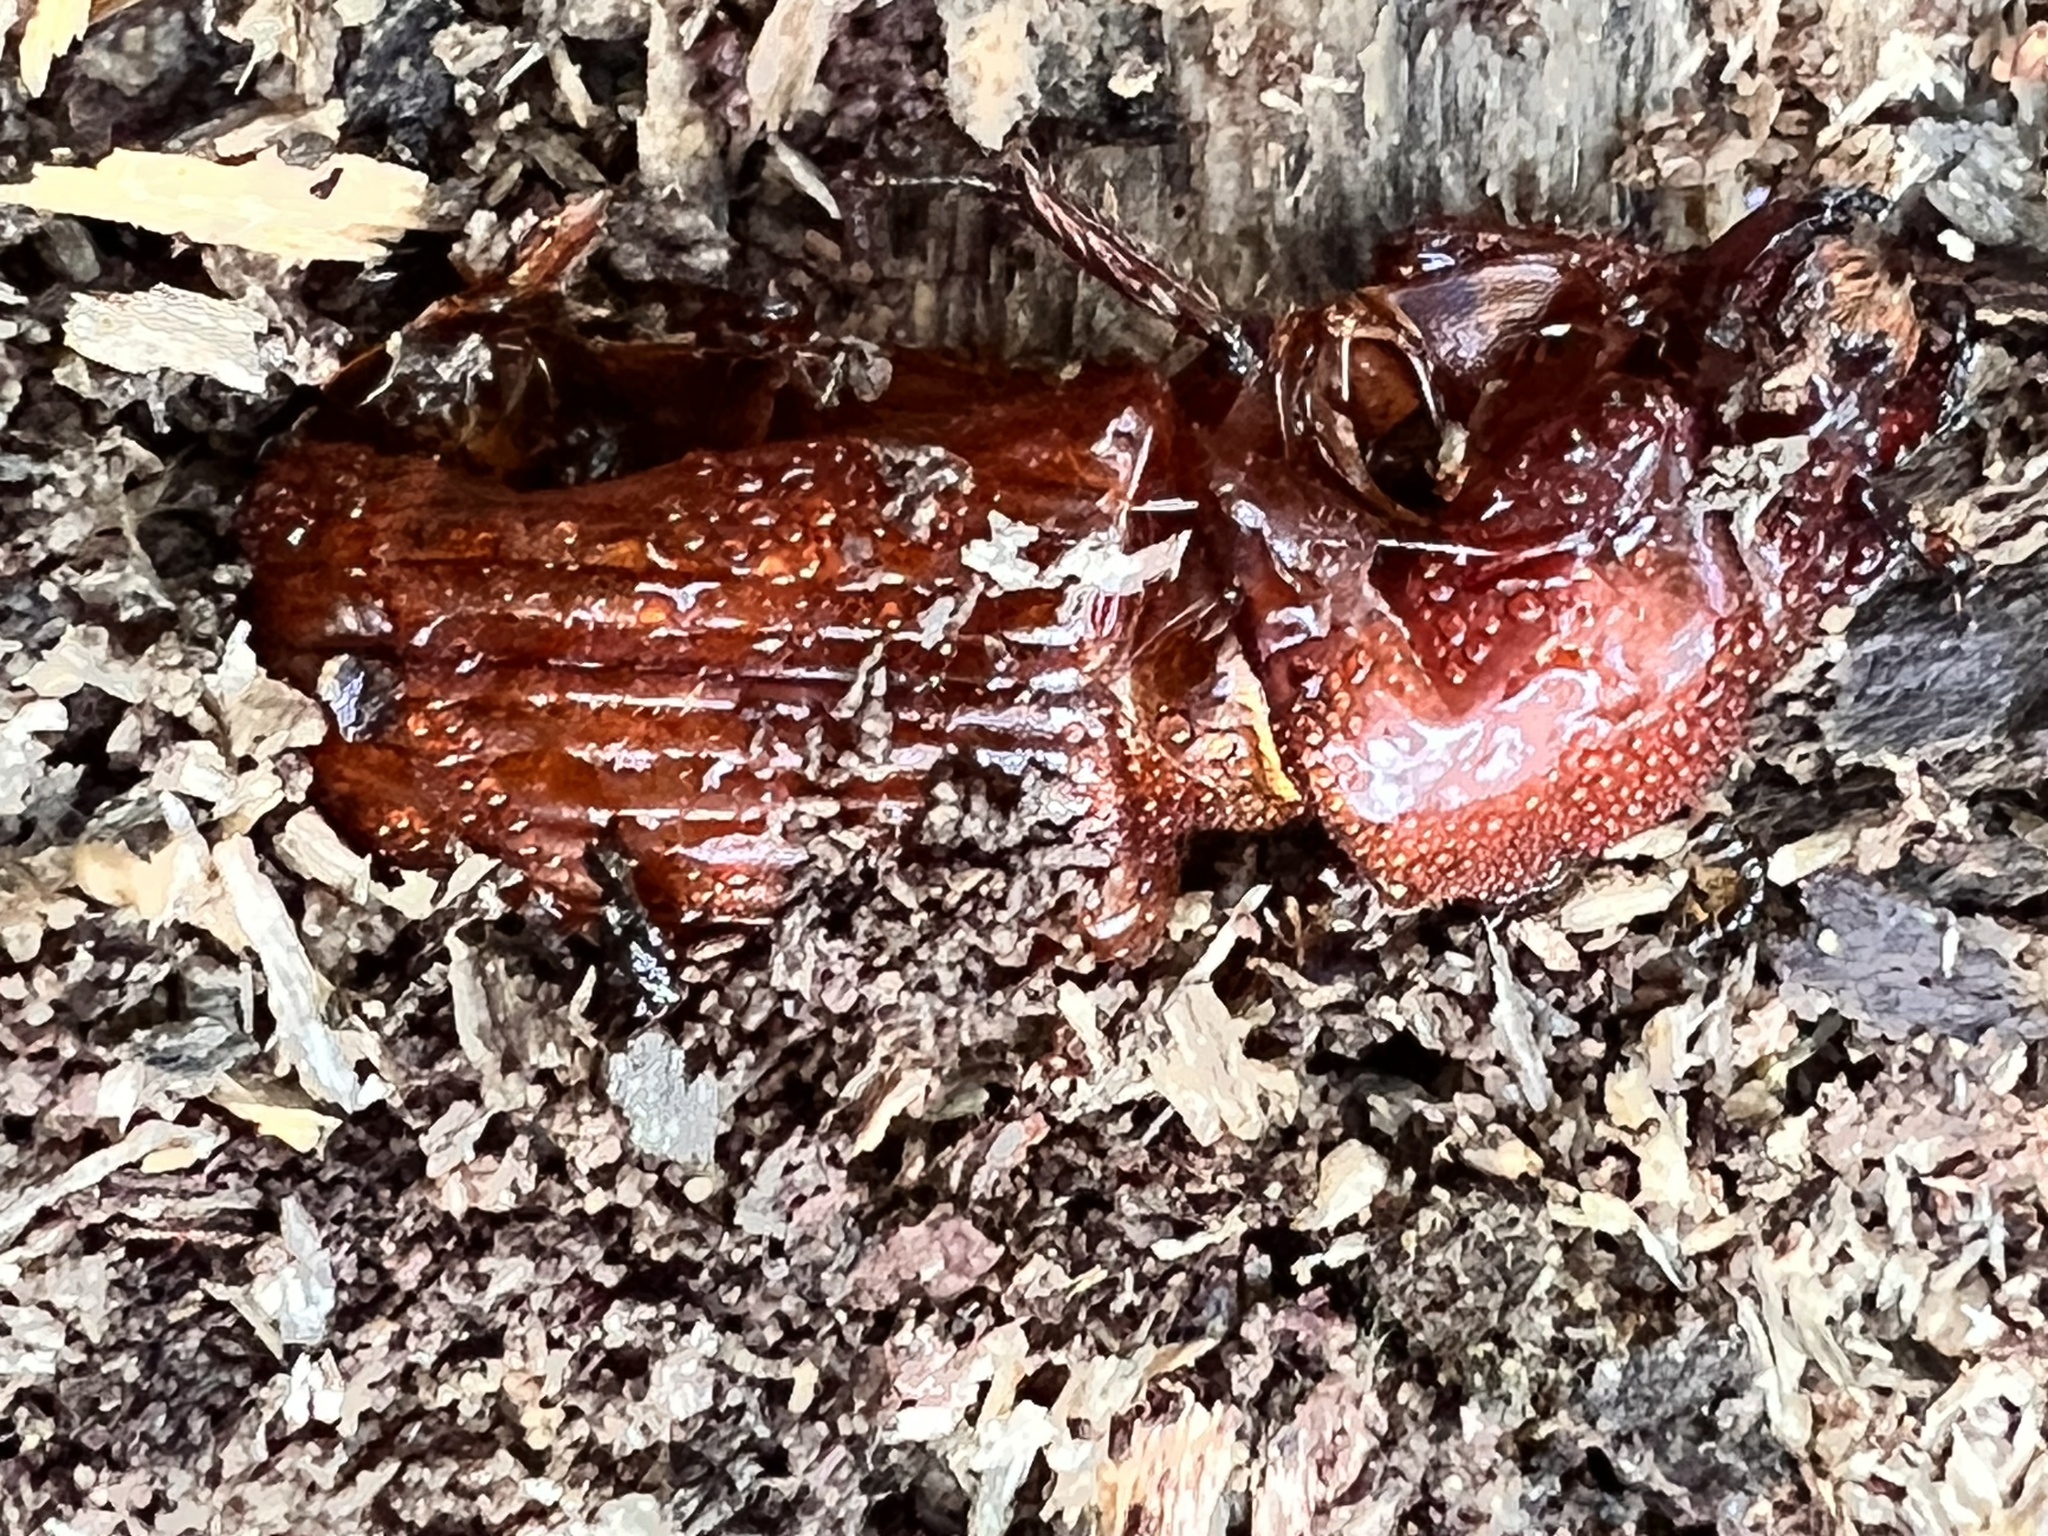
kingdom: Animalia
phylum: Arthropoda
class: Insecta
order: Coleoptera
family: Passalidae
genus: Odontotaenius
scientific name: Odontotaenius disjunctus
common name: Patent leather beetle
